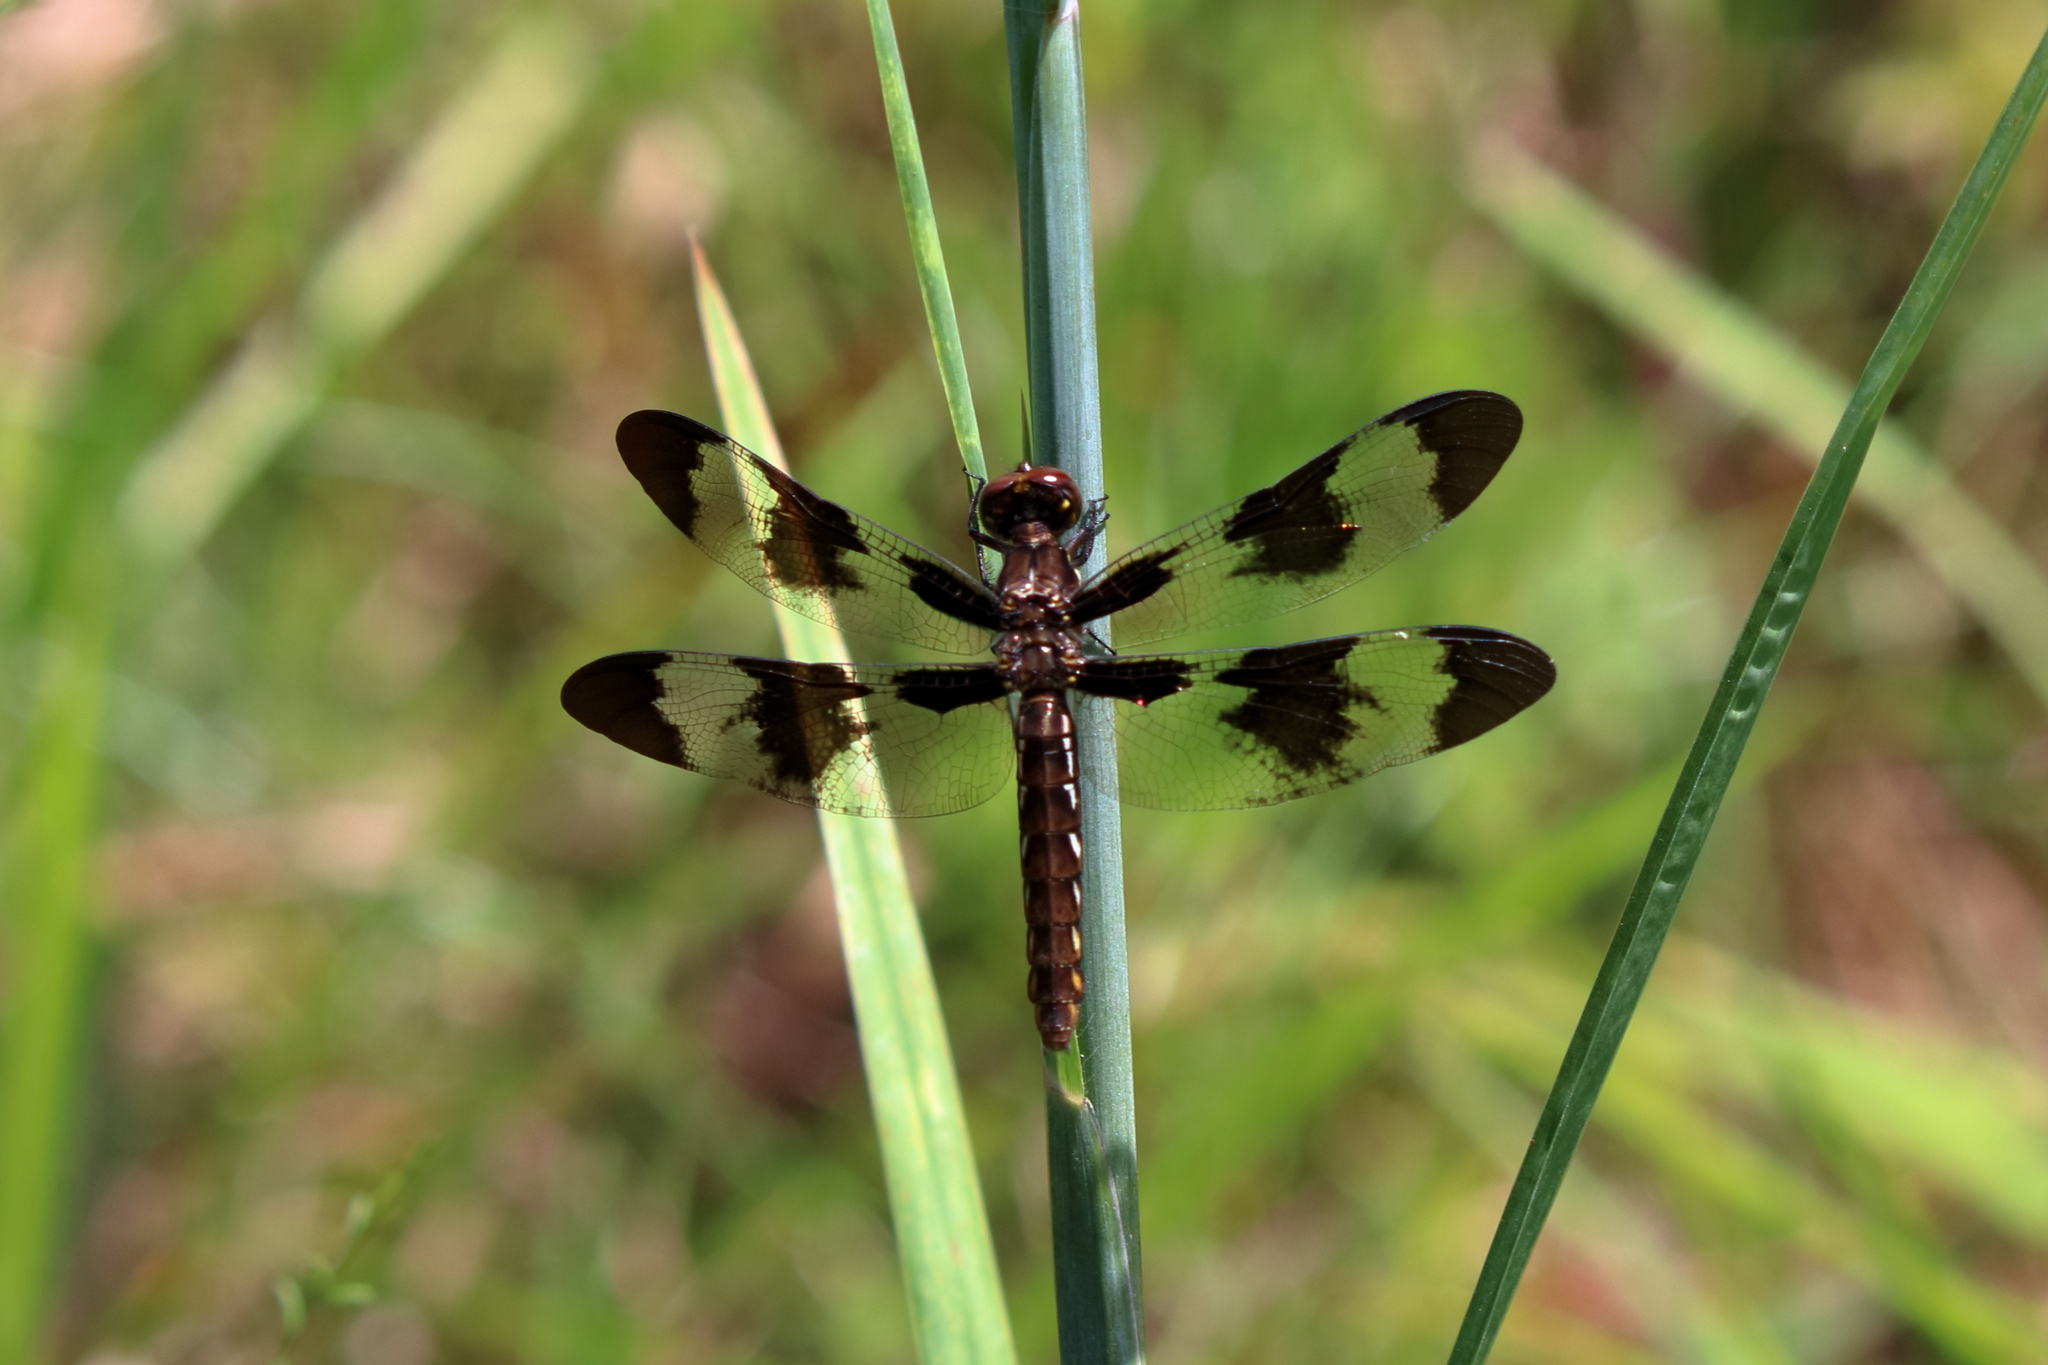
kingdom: Animalia
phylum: Arthropoda
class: Insecta
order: Odonata
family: Libellulidae
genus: Plathemis
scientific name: Plathemis lydia
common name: Common whitetail
